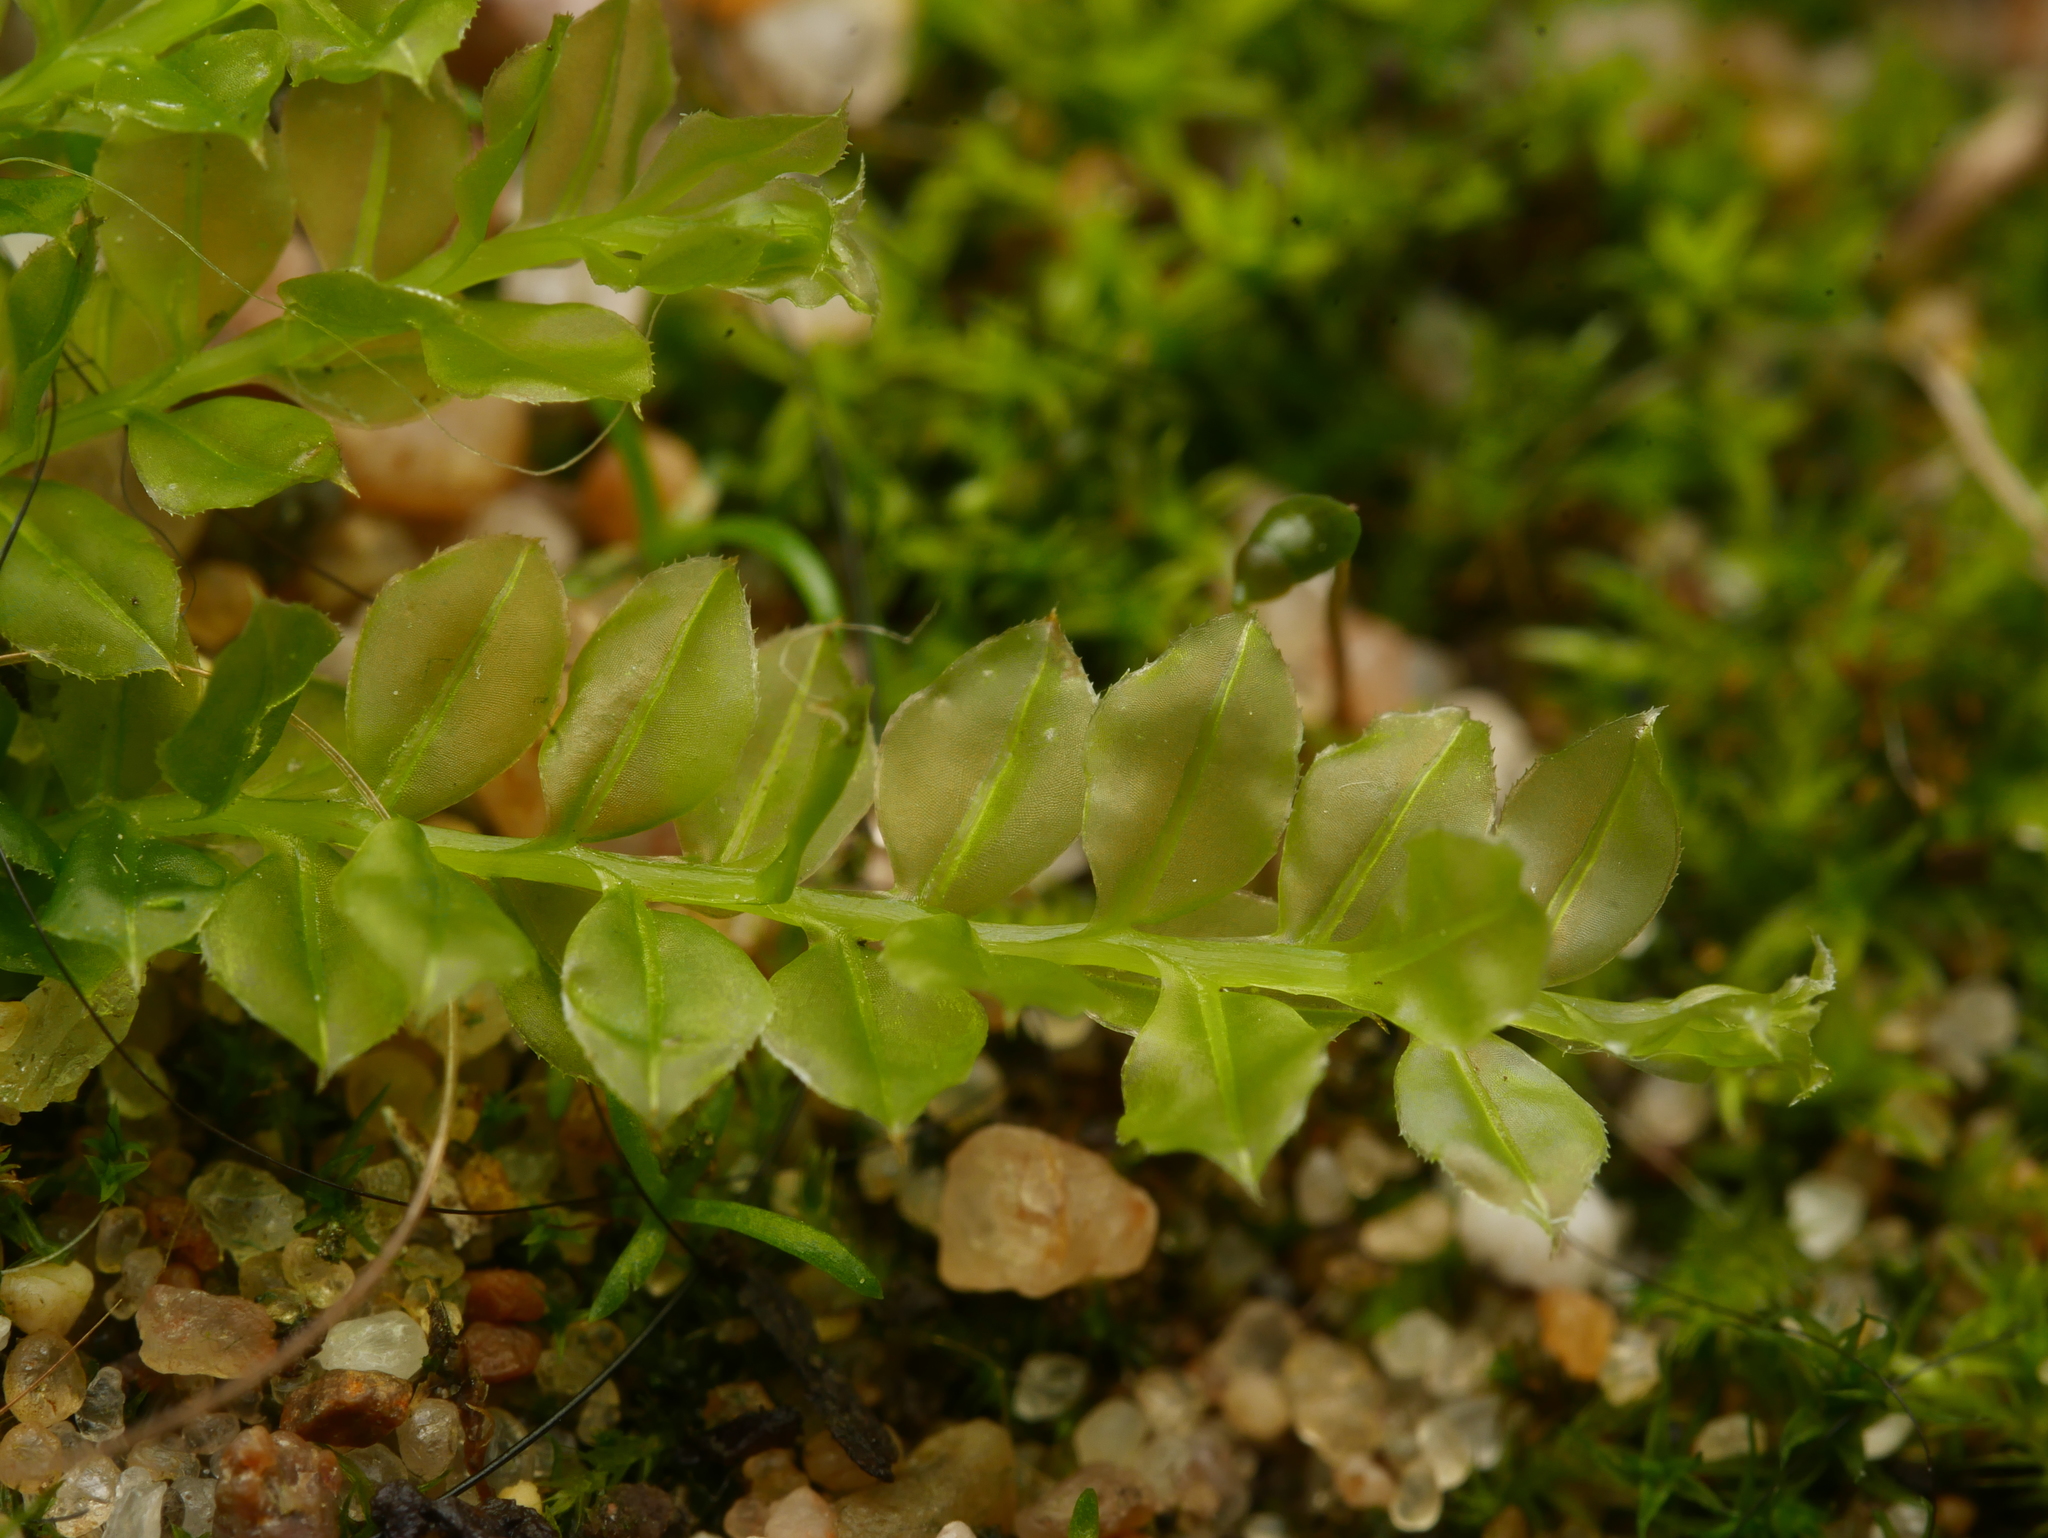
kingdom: Plantae
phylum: Bryophyta
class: Bryopsida
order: Bryales
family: Mniaceae
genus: Plagiomnium
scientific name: Plagiomnium cuspidatum
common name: Woodsy leafy moss
